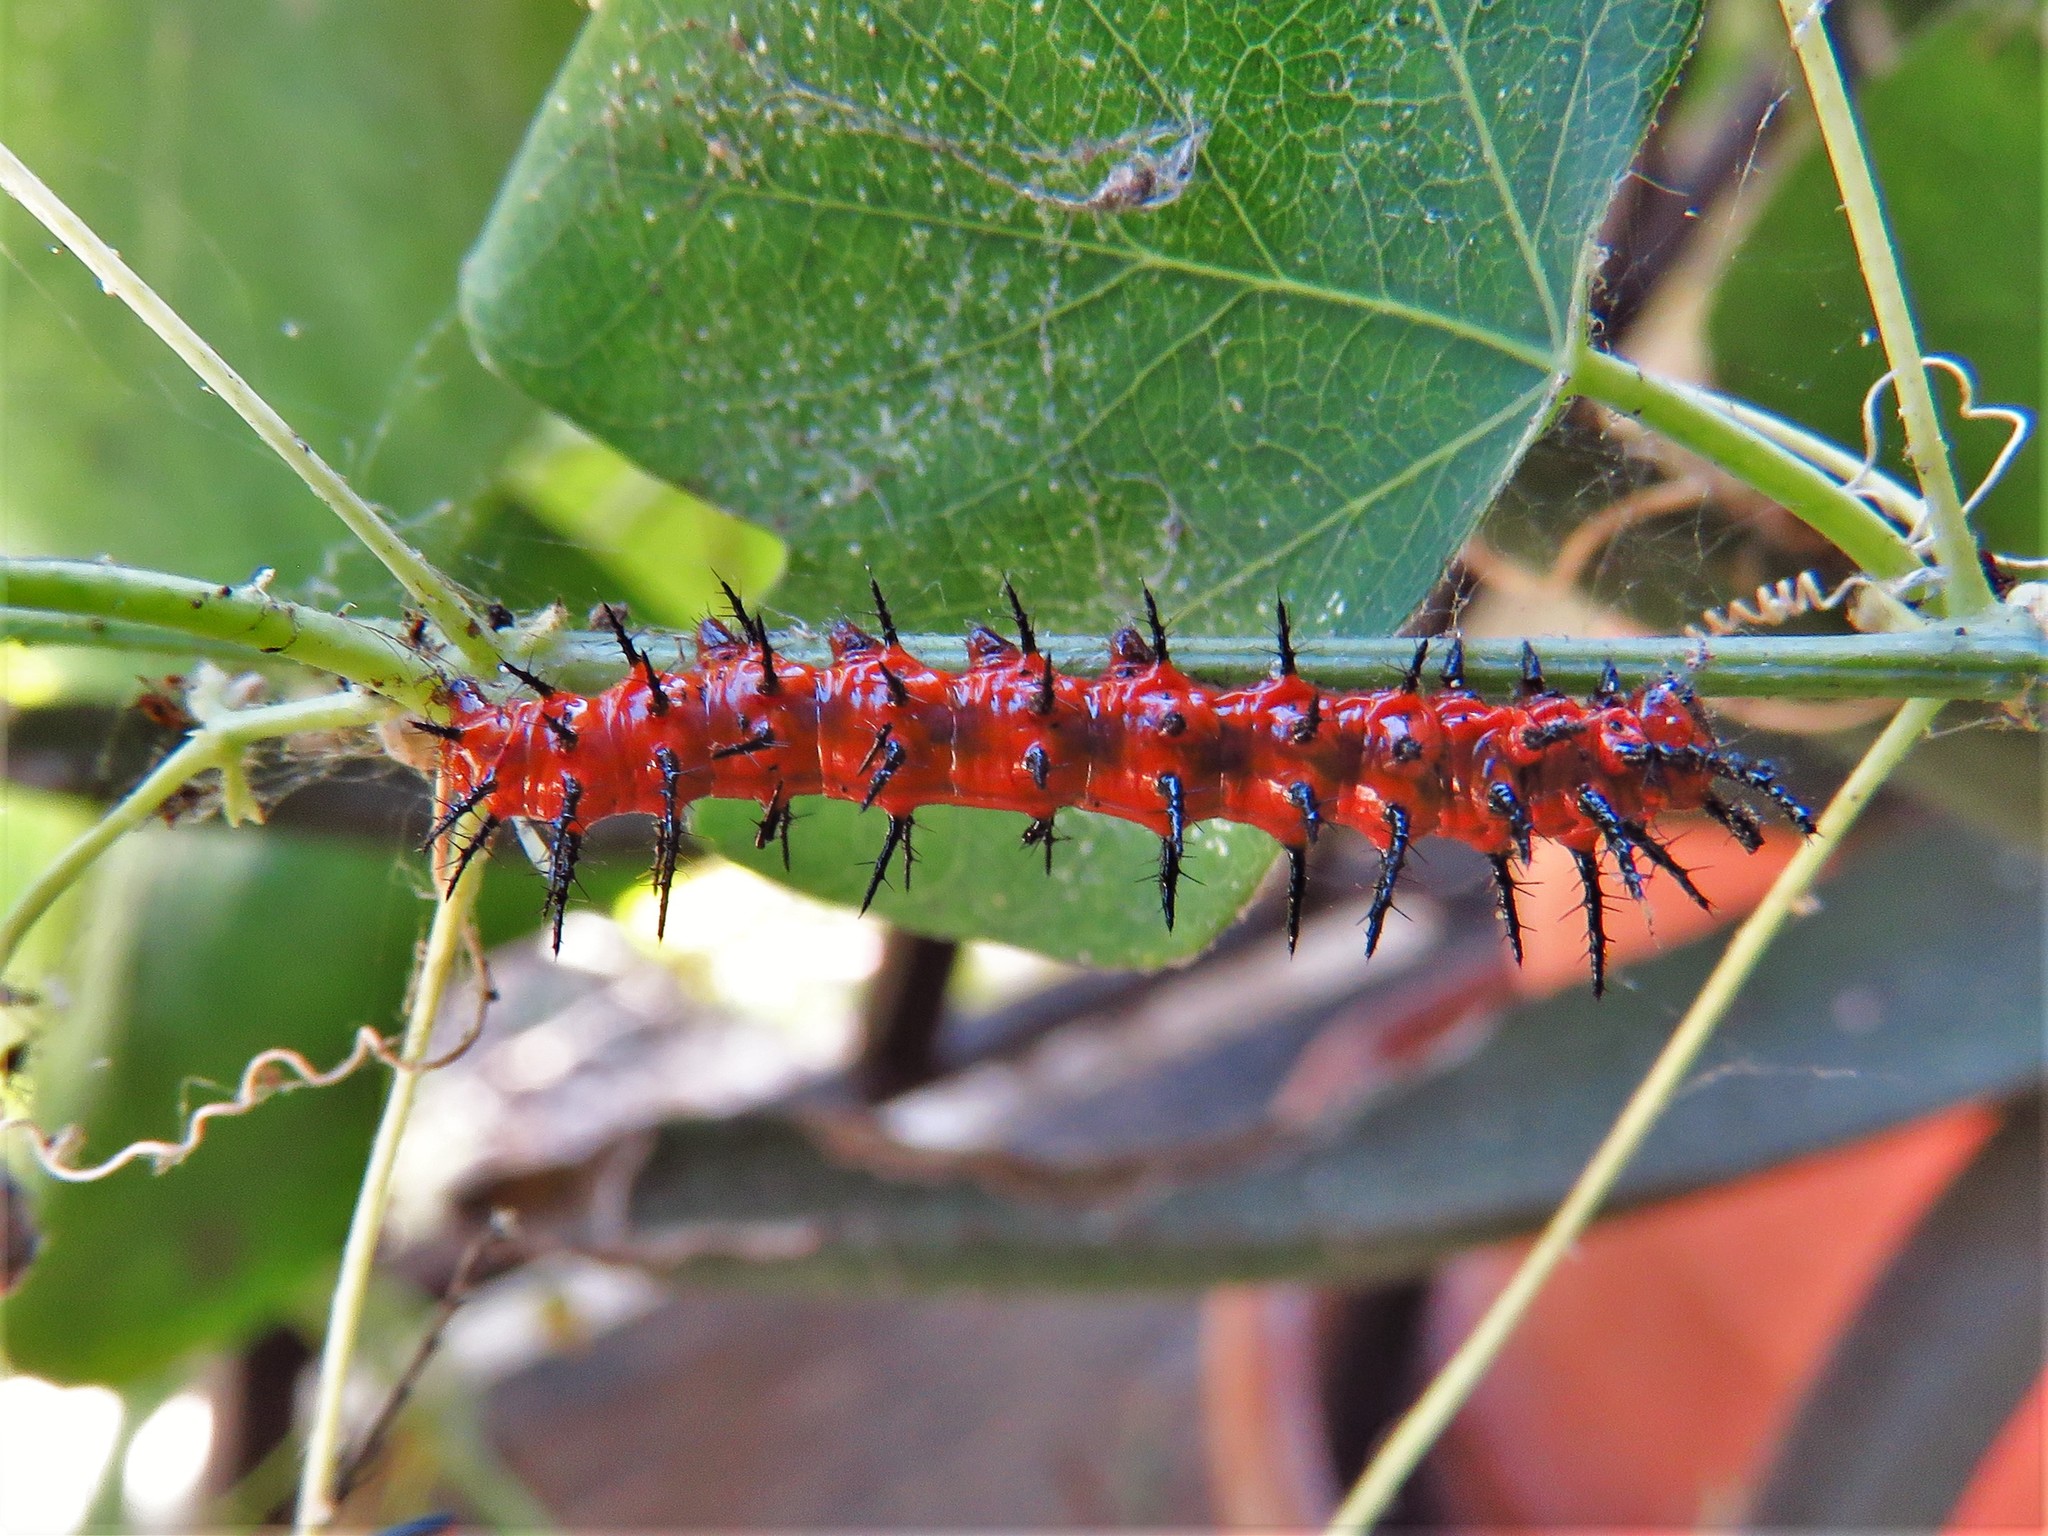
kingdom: Animalia
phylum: Arthropoda
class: Insecta
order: Lepidoptera
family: Nymphalidae
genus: Dione
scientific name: Dione vanillae
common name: Gulf fritillary
